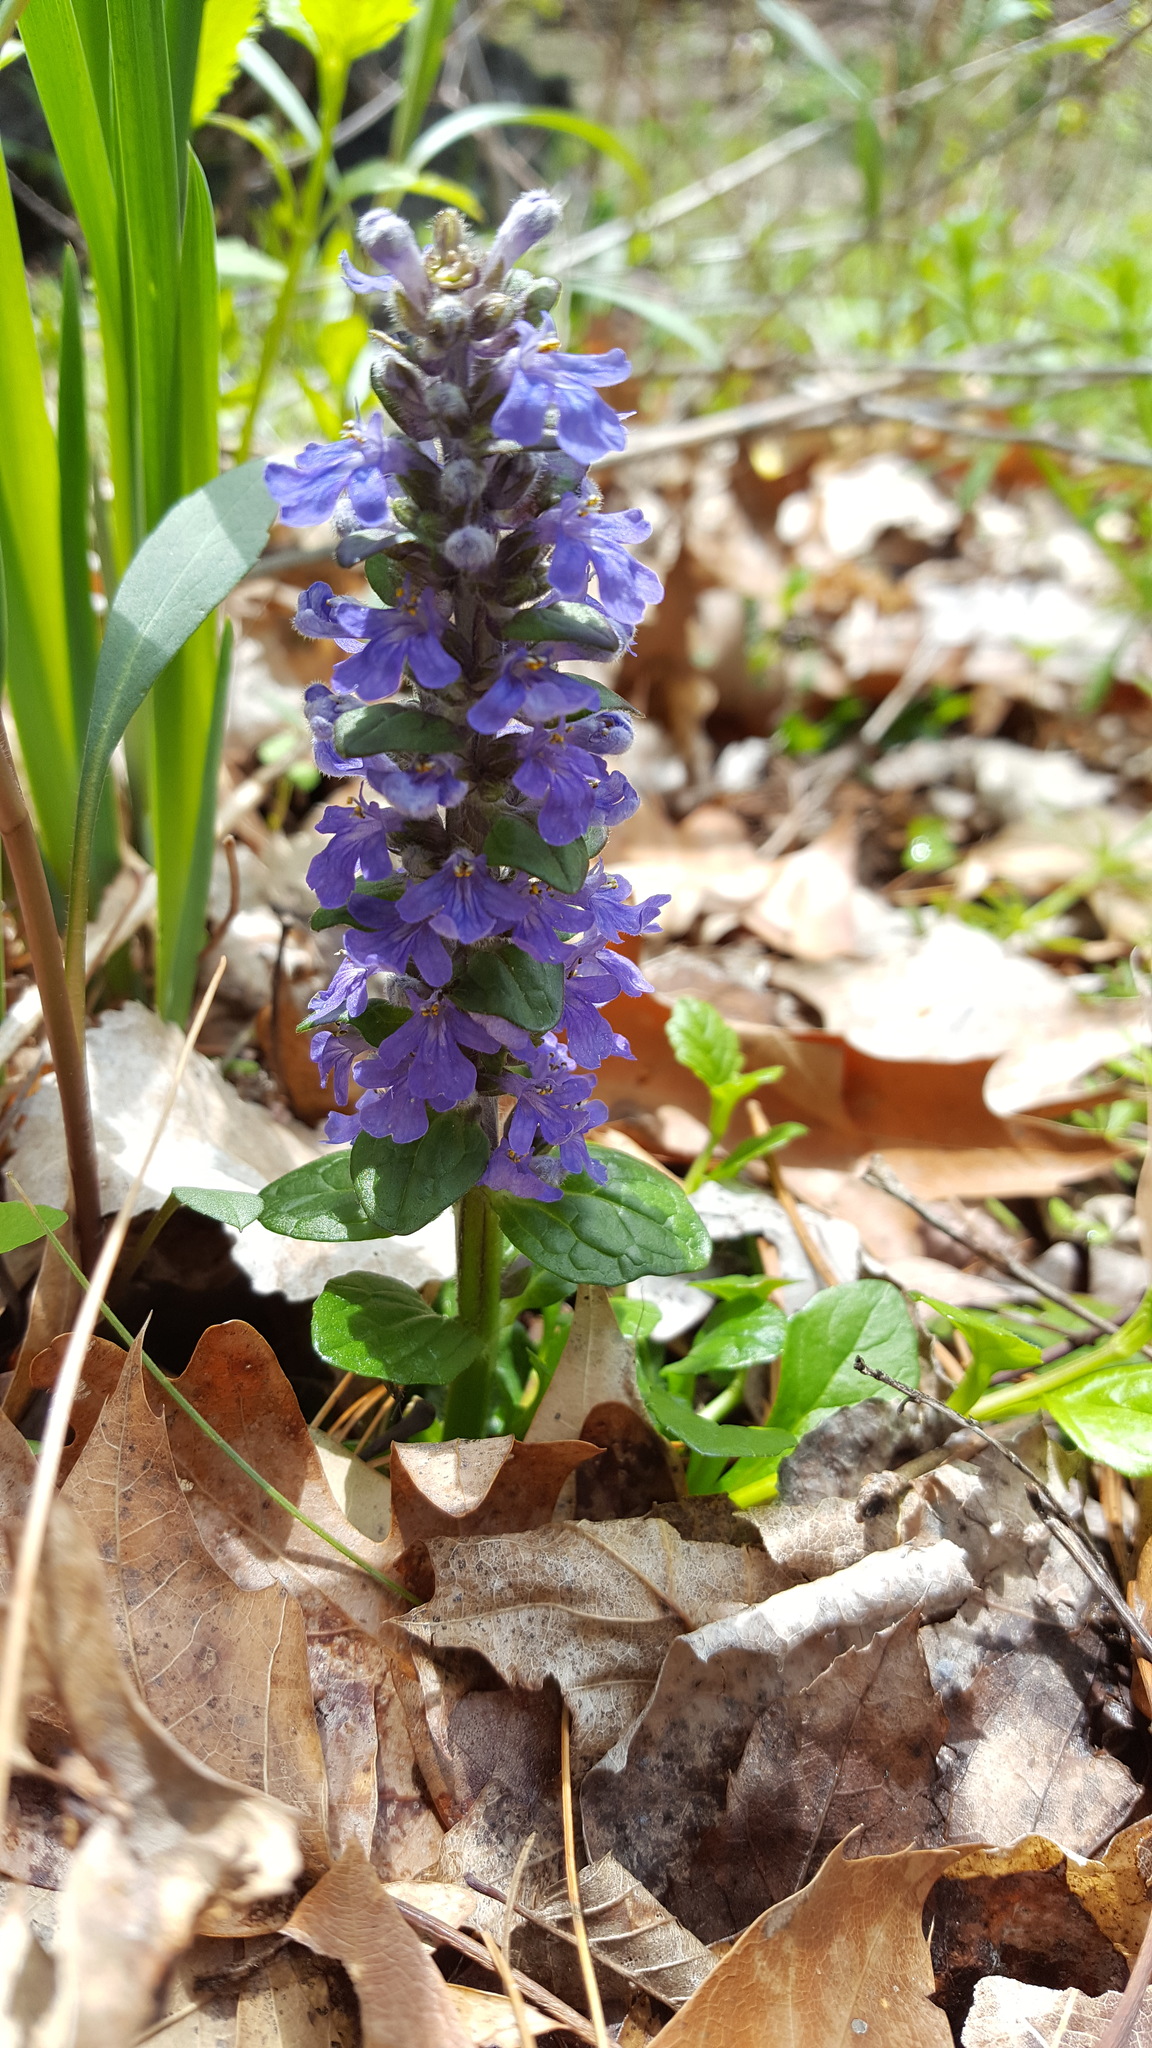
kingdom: Plantae
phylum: Tracheophyta
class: Magnoliopsida
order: Lamiales
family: Lamiaceae
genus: Ajuga
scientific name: Ajuga reptans
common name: Bugle
